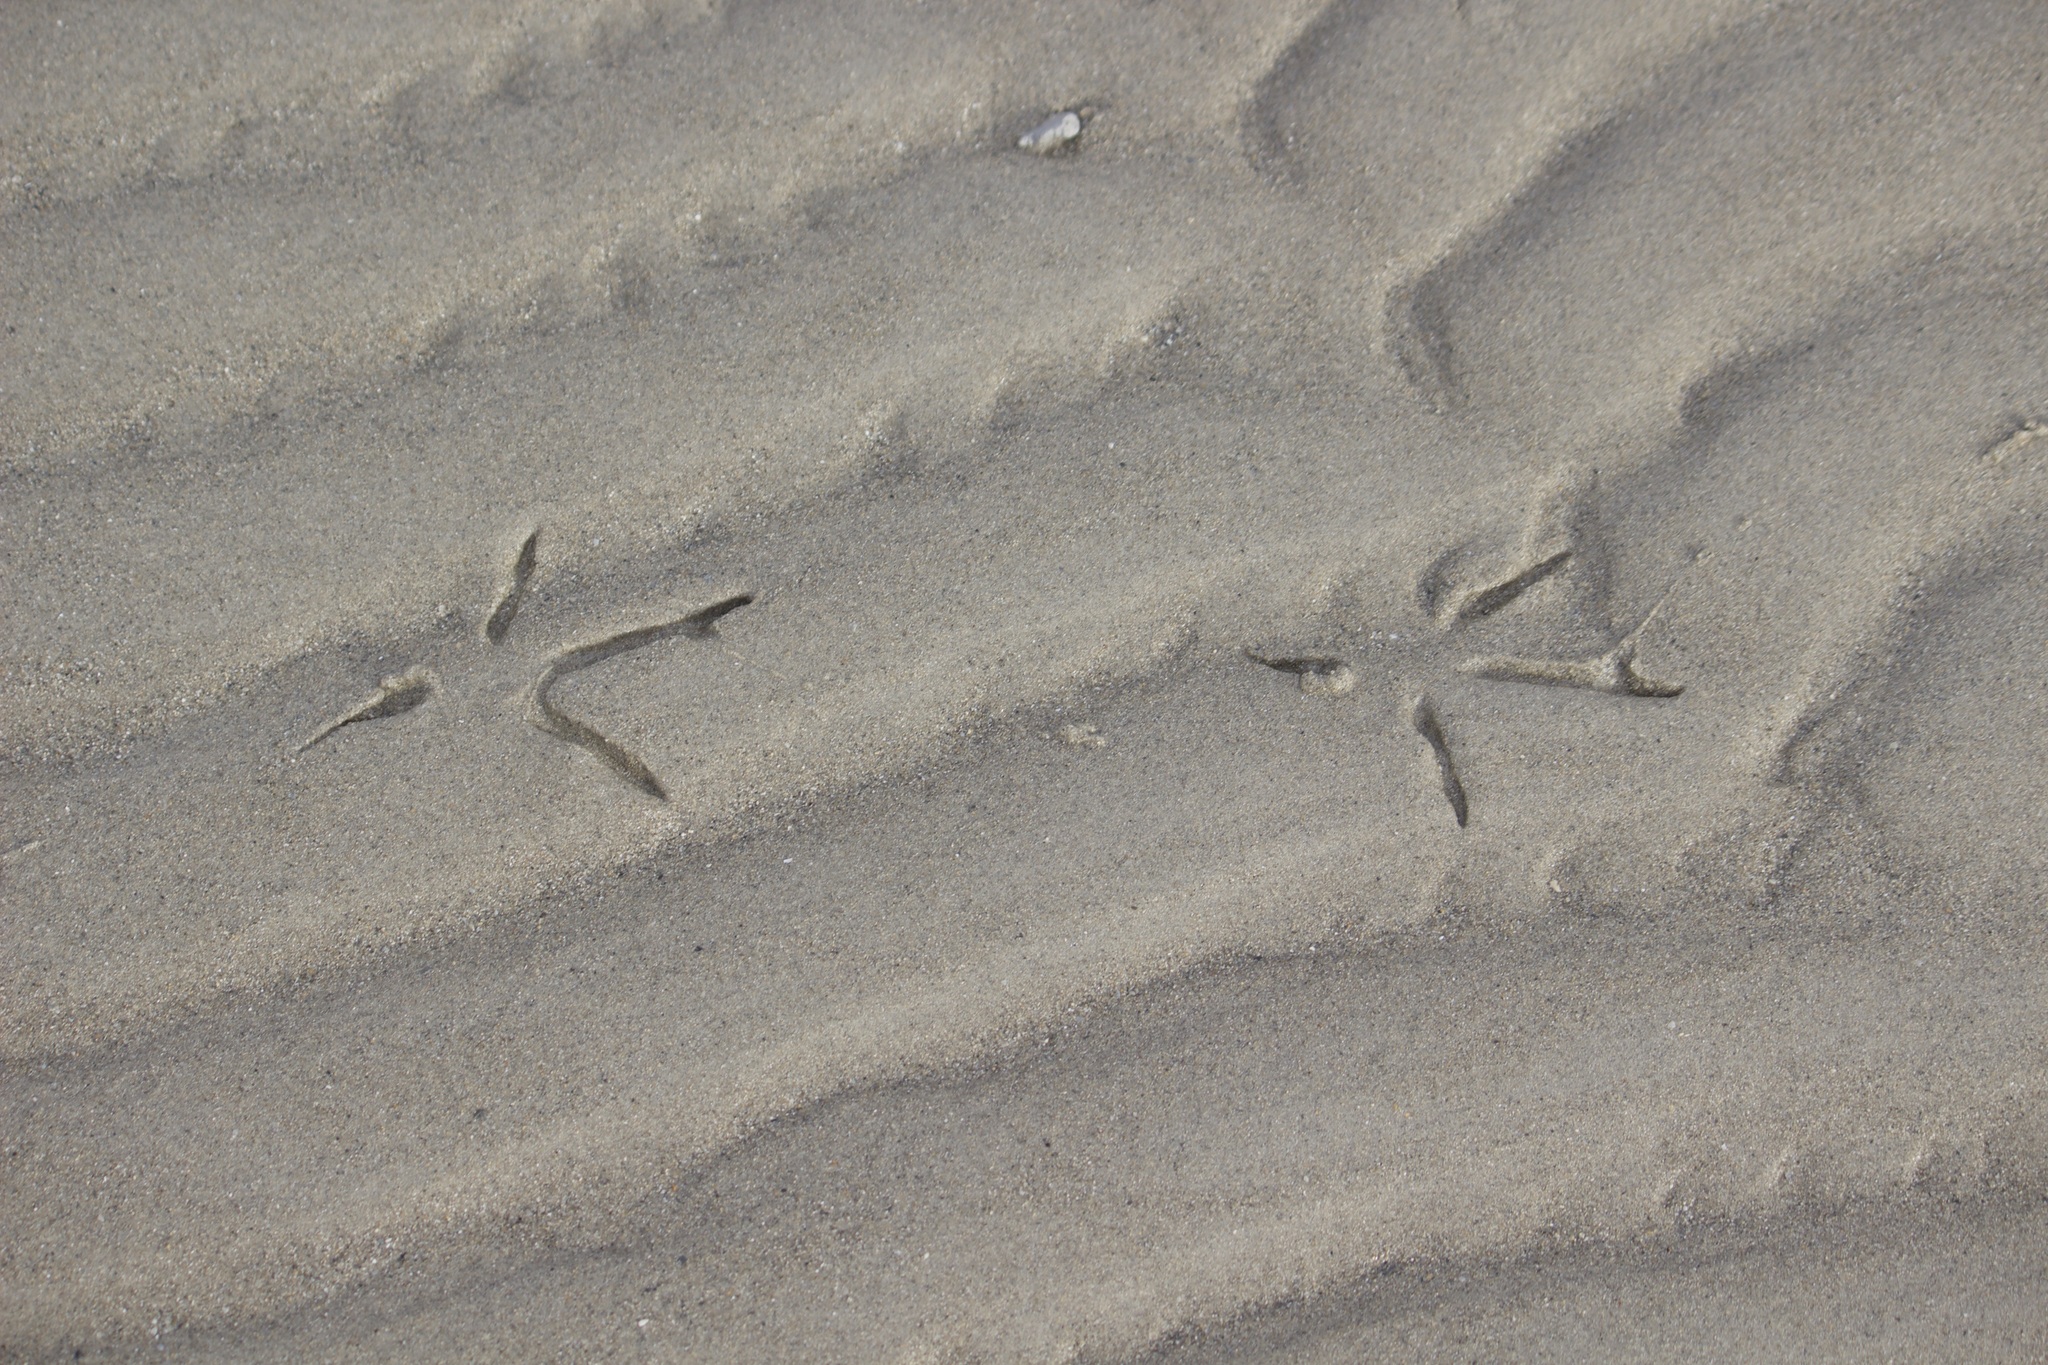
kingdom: Animalia
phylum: Chordata
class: Aves
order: Columbiformes
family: Columbidae
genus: Columba
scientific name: Columba livia
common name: Rock pigeon
